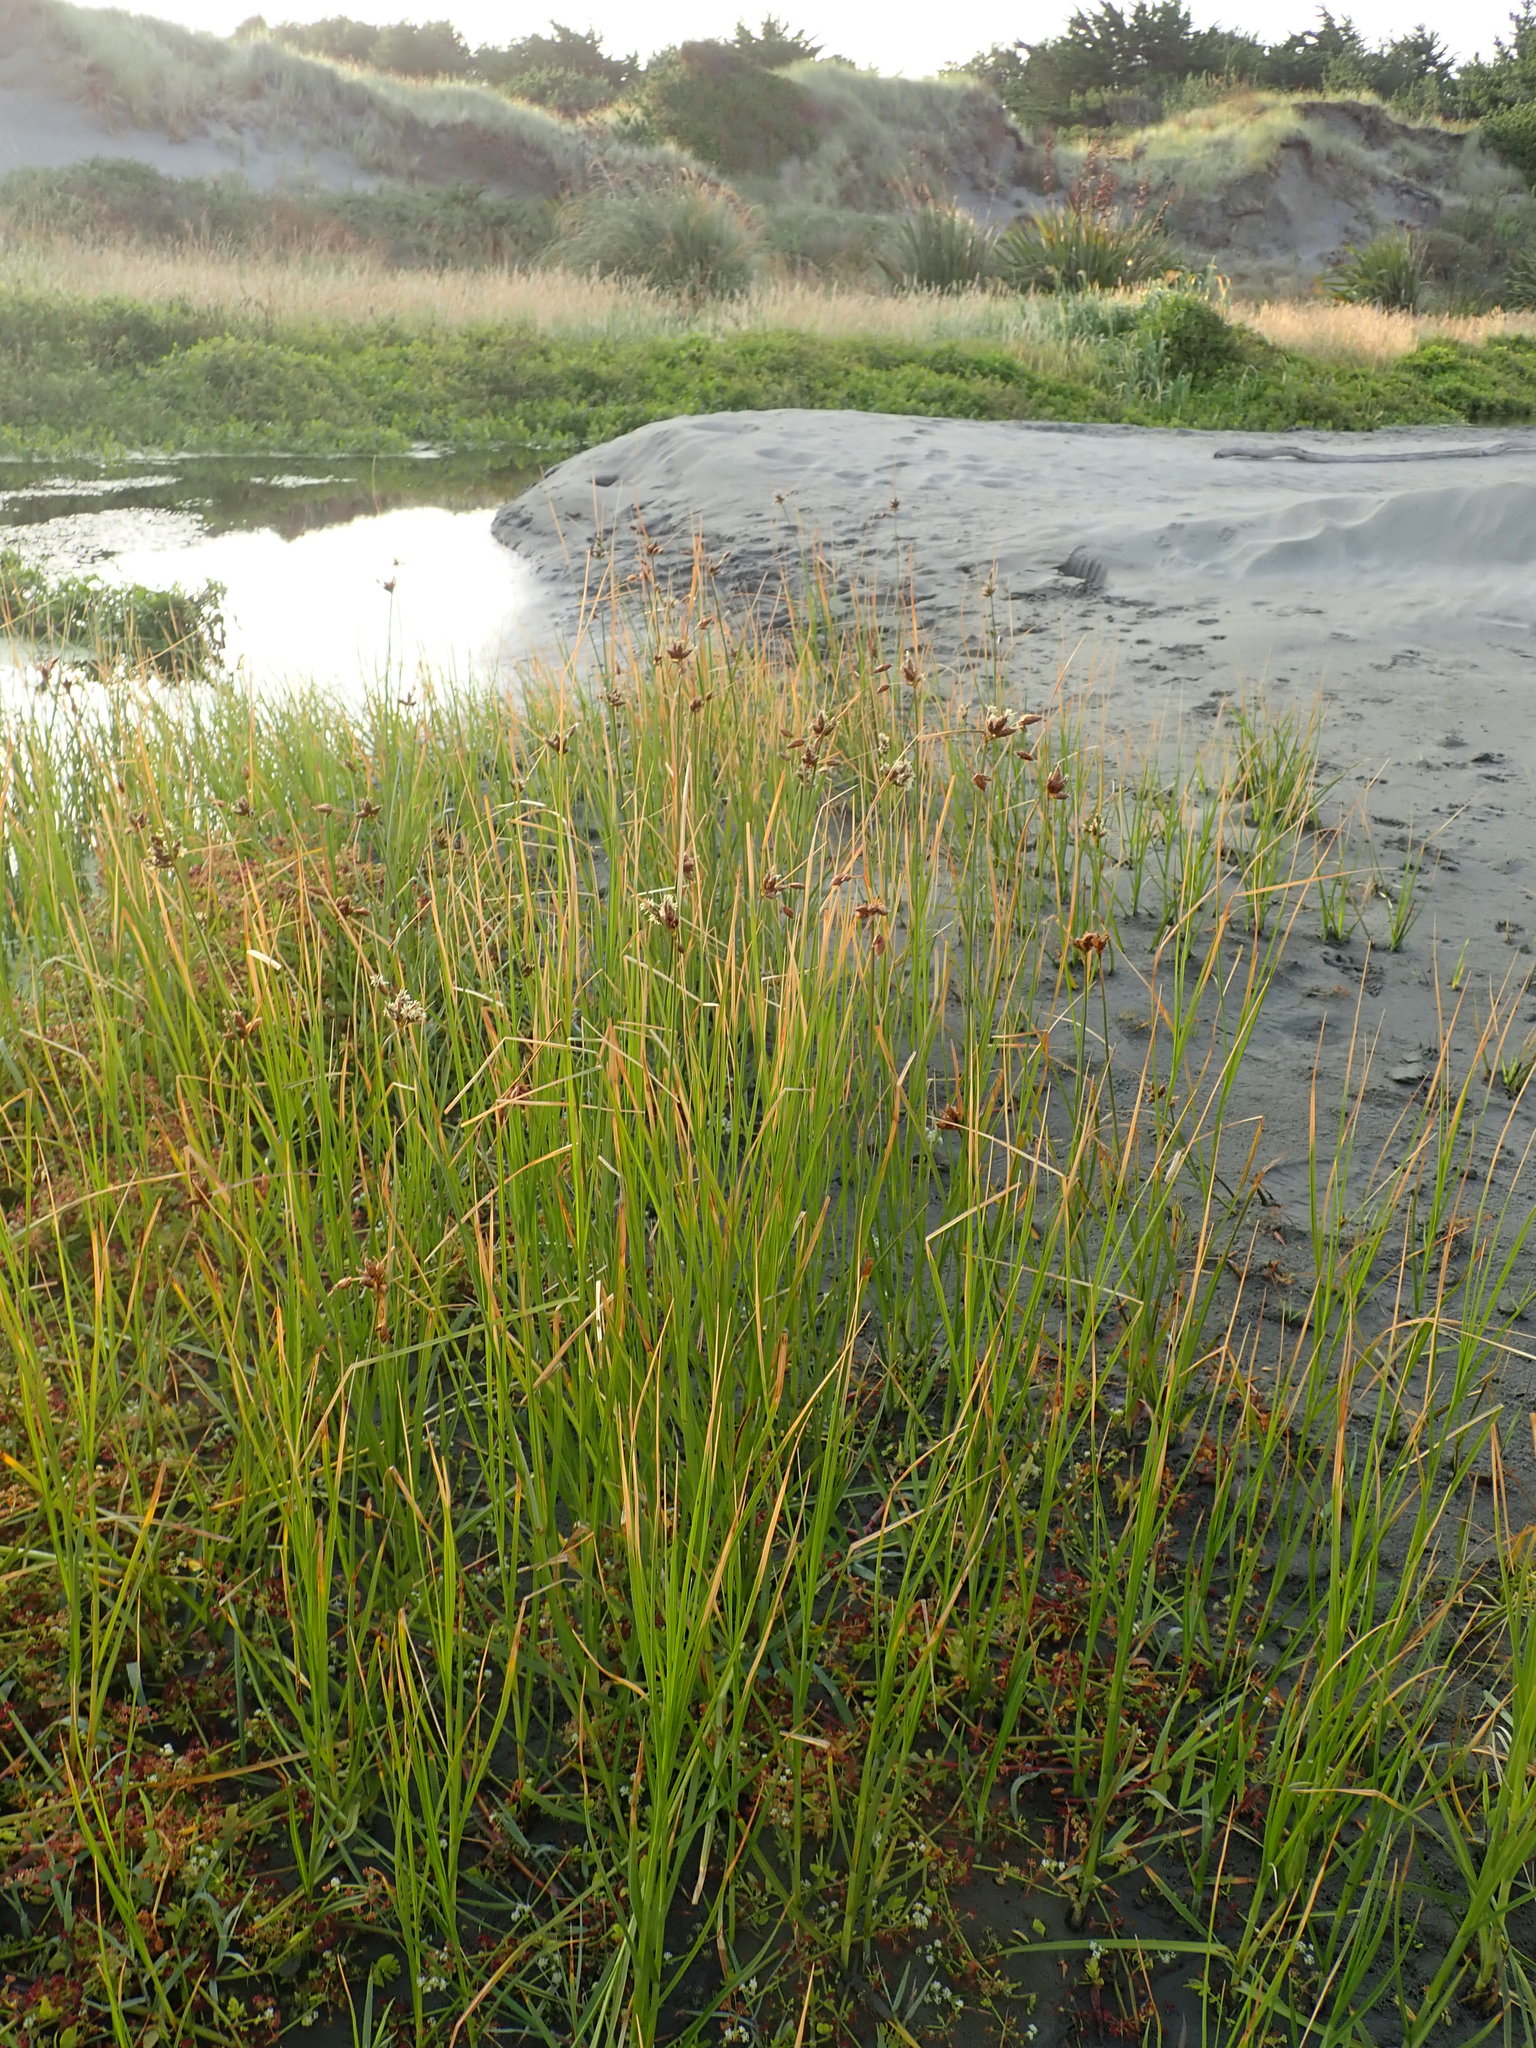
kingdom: Plantae
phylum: Tracheophyta
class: Liliopsida
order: Poales
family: Cyperaceae
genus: Bolboschoenus
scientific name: Bolboschoenus caldwellii
